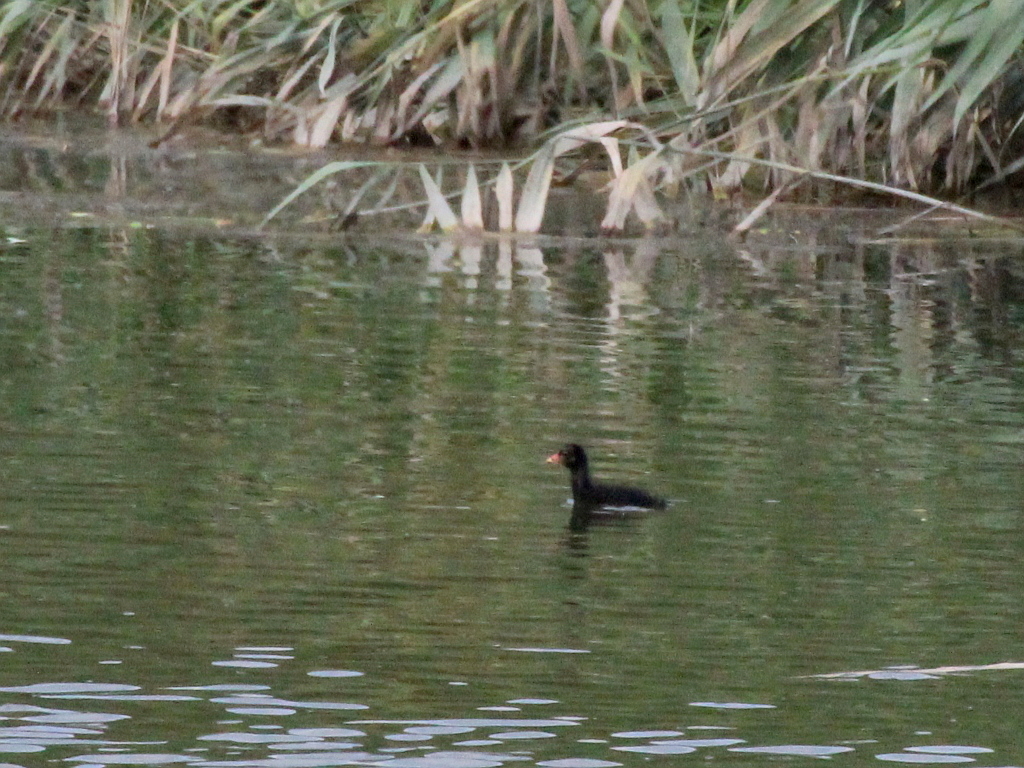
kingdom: Animalia
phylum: Chordata
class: Aves
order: Gruiformes
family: Rallidae
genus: Gallinula
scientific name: Gallinula chloropus
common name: Common moorhen
